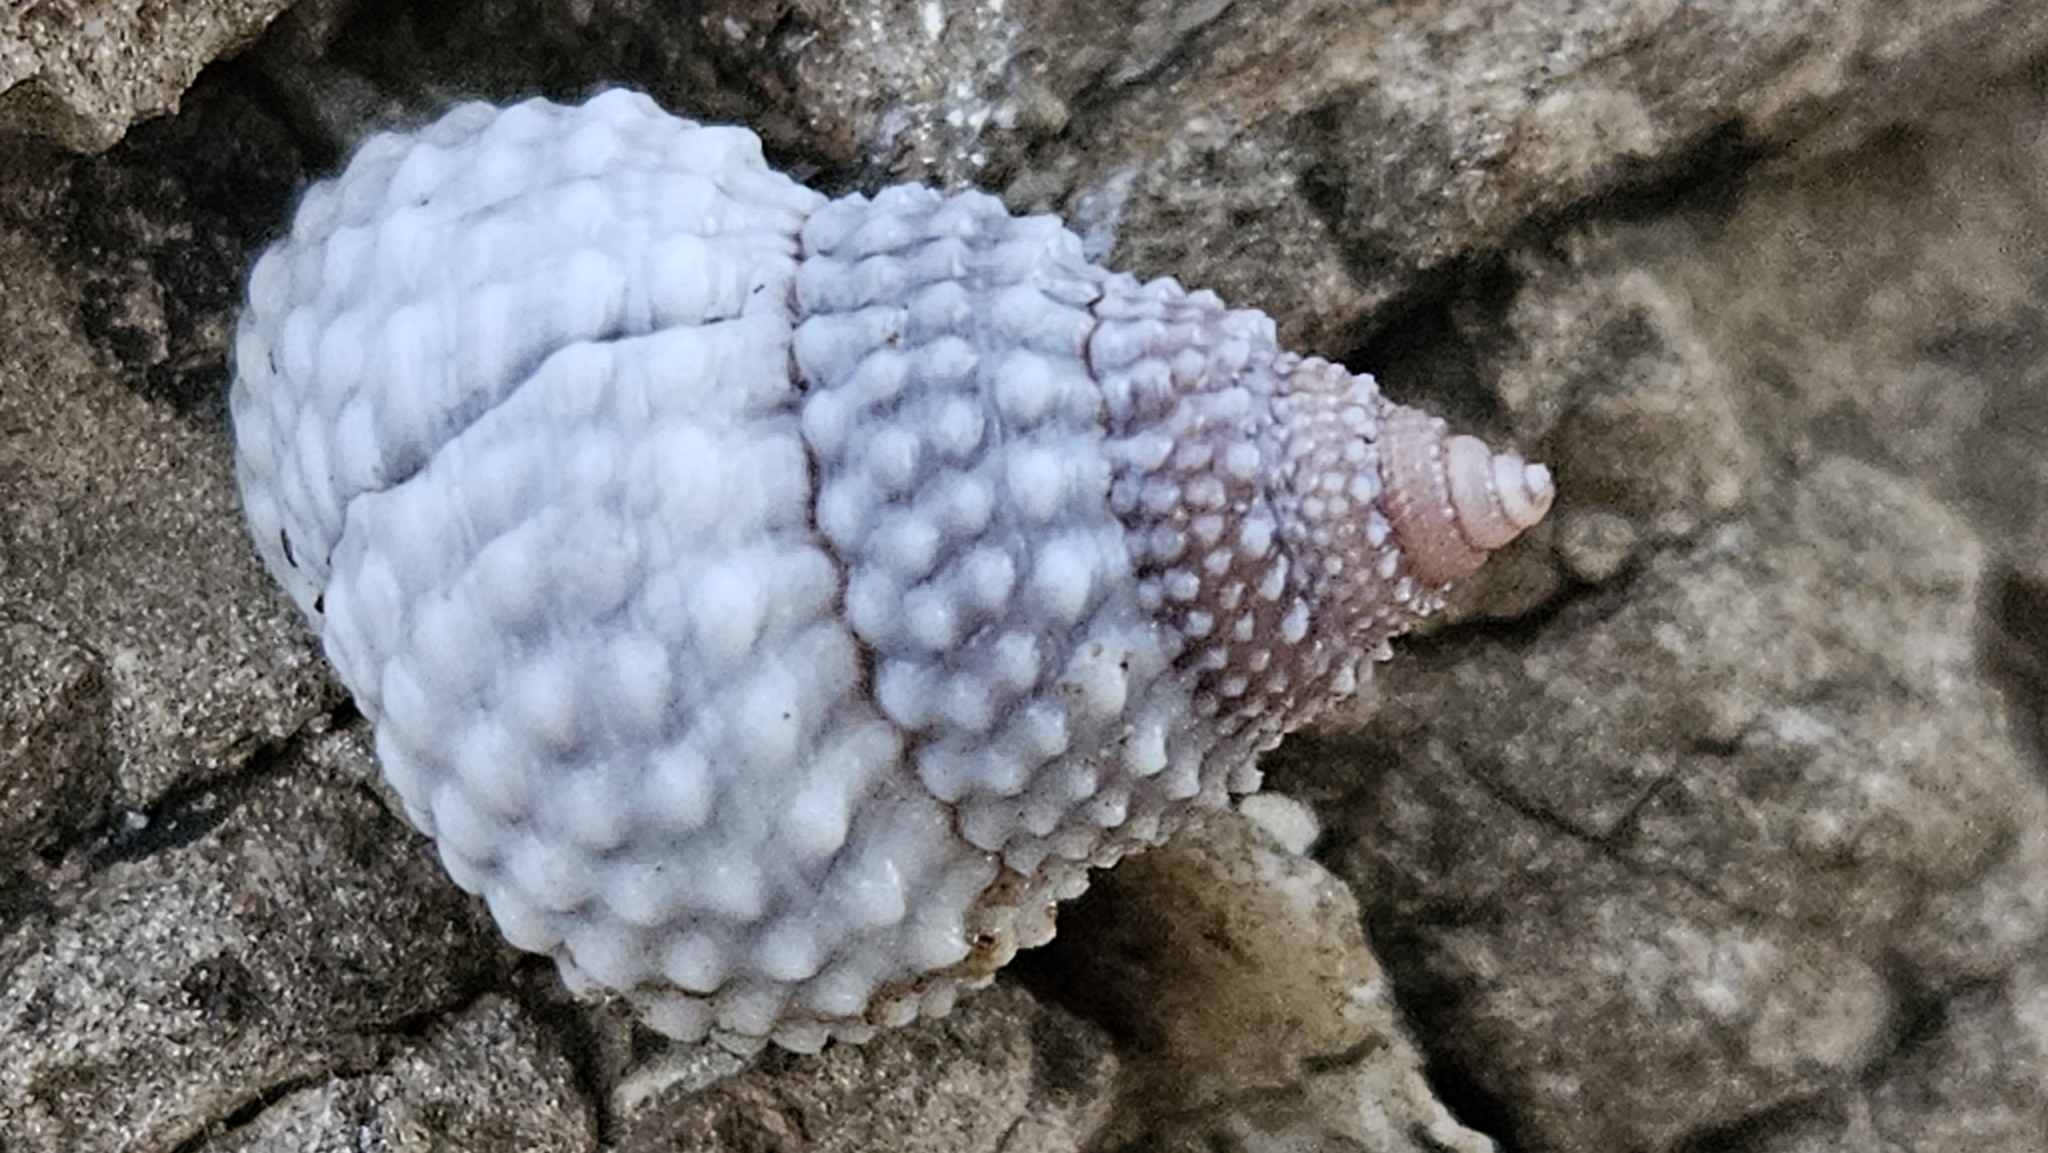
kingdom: Animalia
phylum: Mollusca
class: Gastropoda
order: Littorinimorpha
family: Littorinidae
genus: Cenchritis
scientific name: Cenchritis muricatus
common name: Beaded periwinkle
